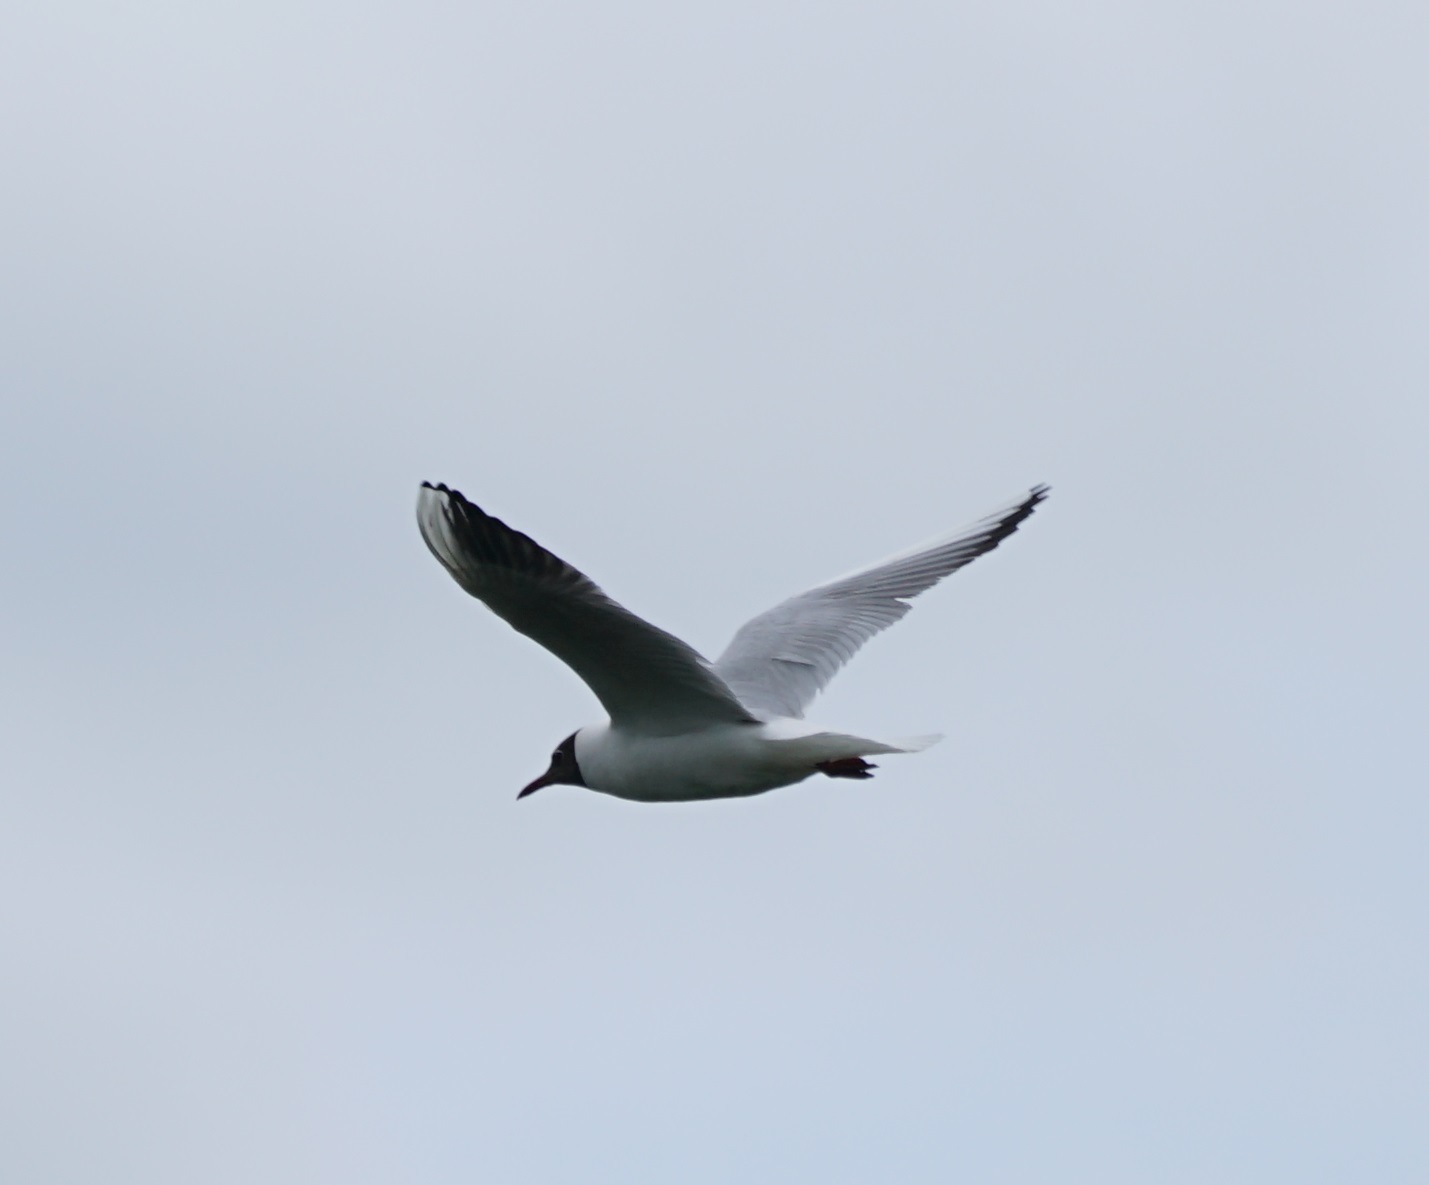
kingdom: Animalia
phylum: Chordata
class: Aves
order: Charadriiformes
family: Laridae
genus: Chroicocephalus
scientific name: Chroicocephalus ridibundus
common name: Black-headed gull
